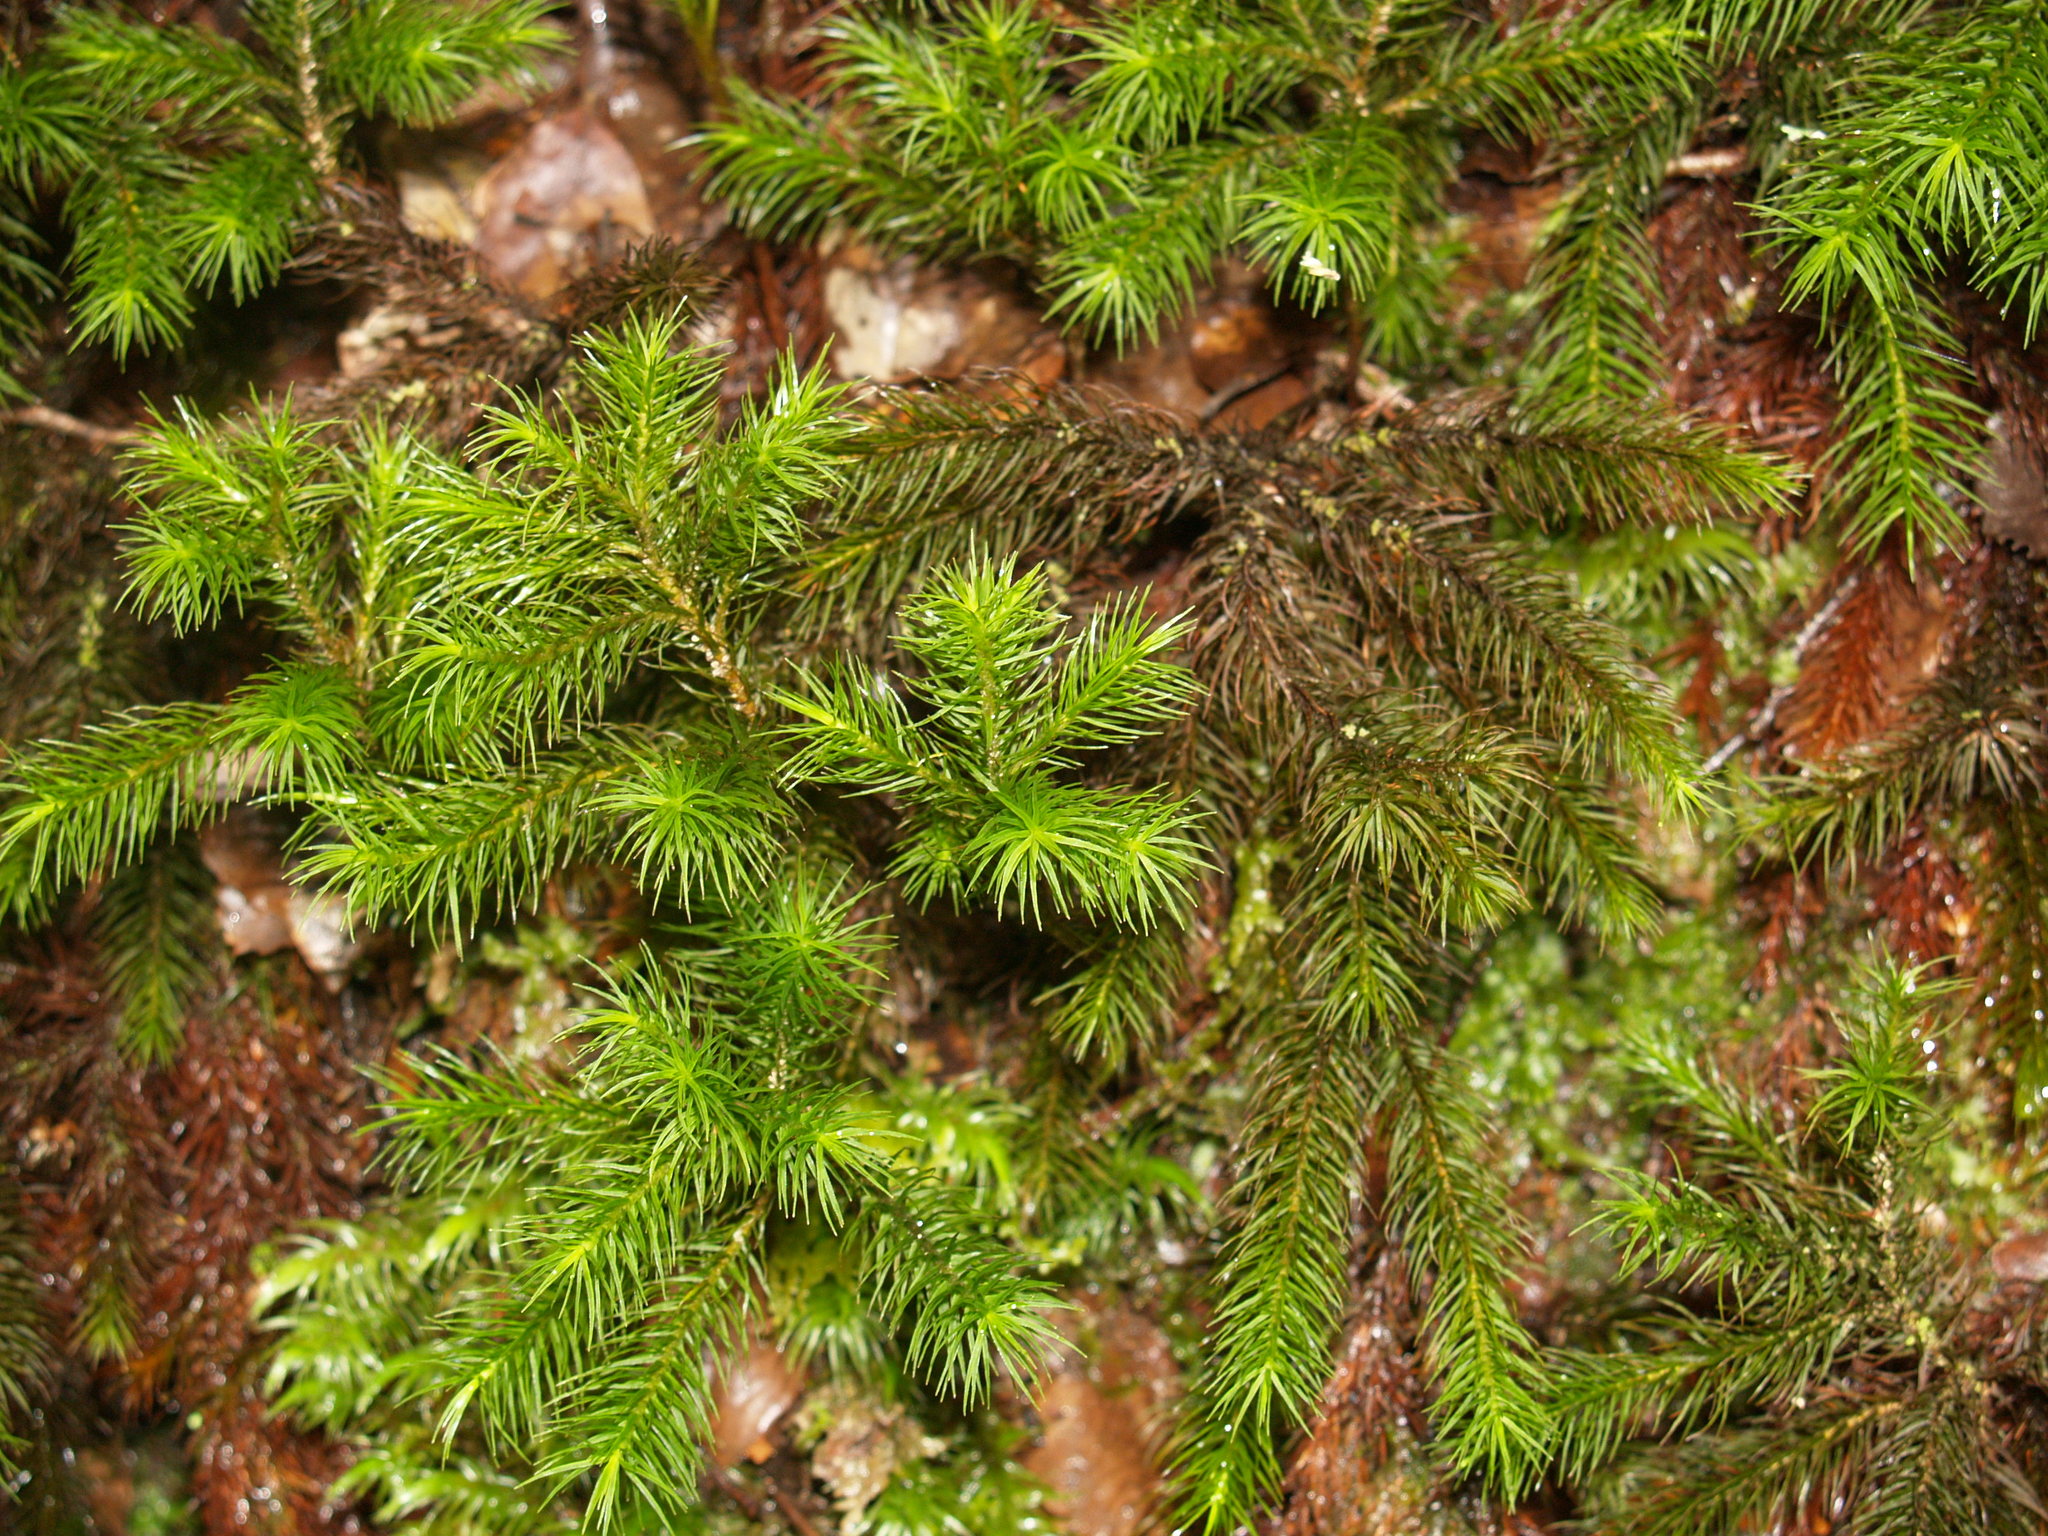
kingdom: Plantae
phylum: Bryophyta
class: Polytrichopsida
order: Polytrichales
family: Polytrichaceae
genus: Dendroligotrichum
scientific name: Dendroligotrichum tongariroense
